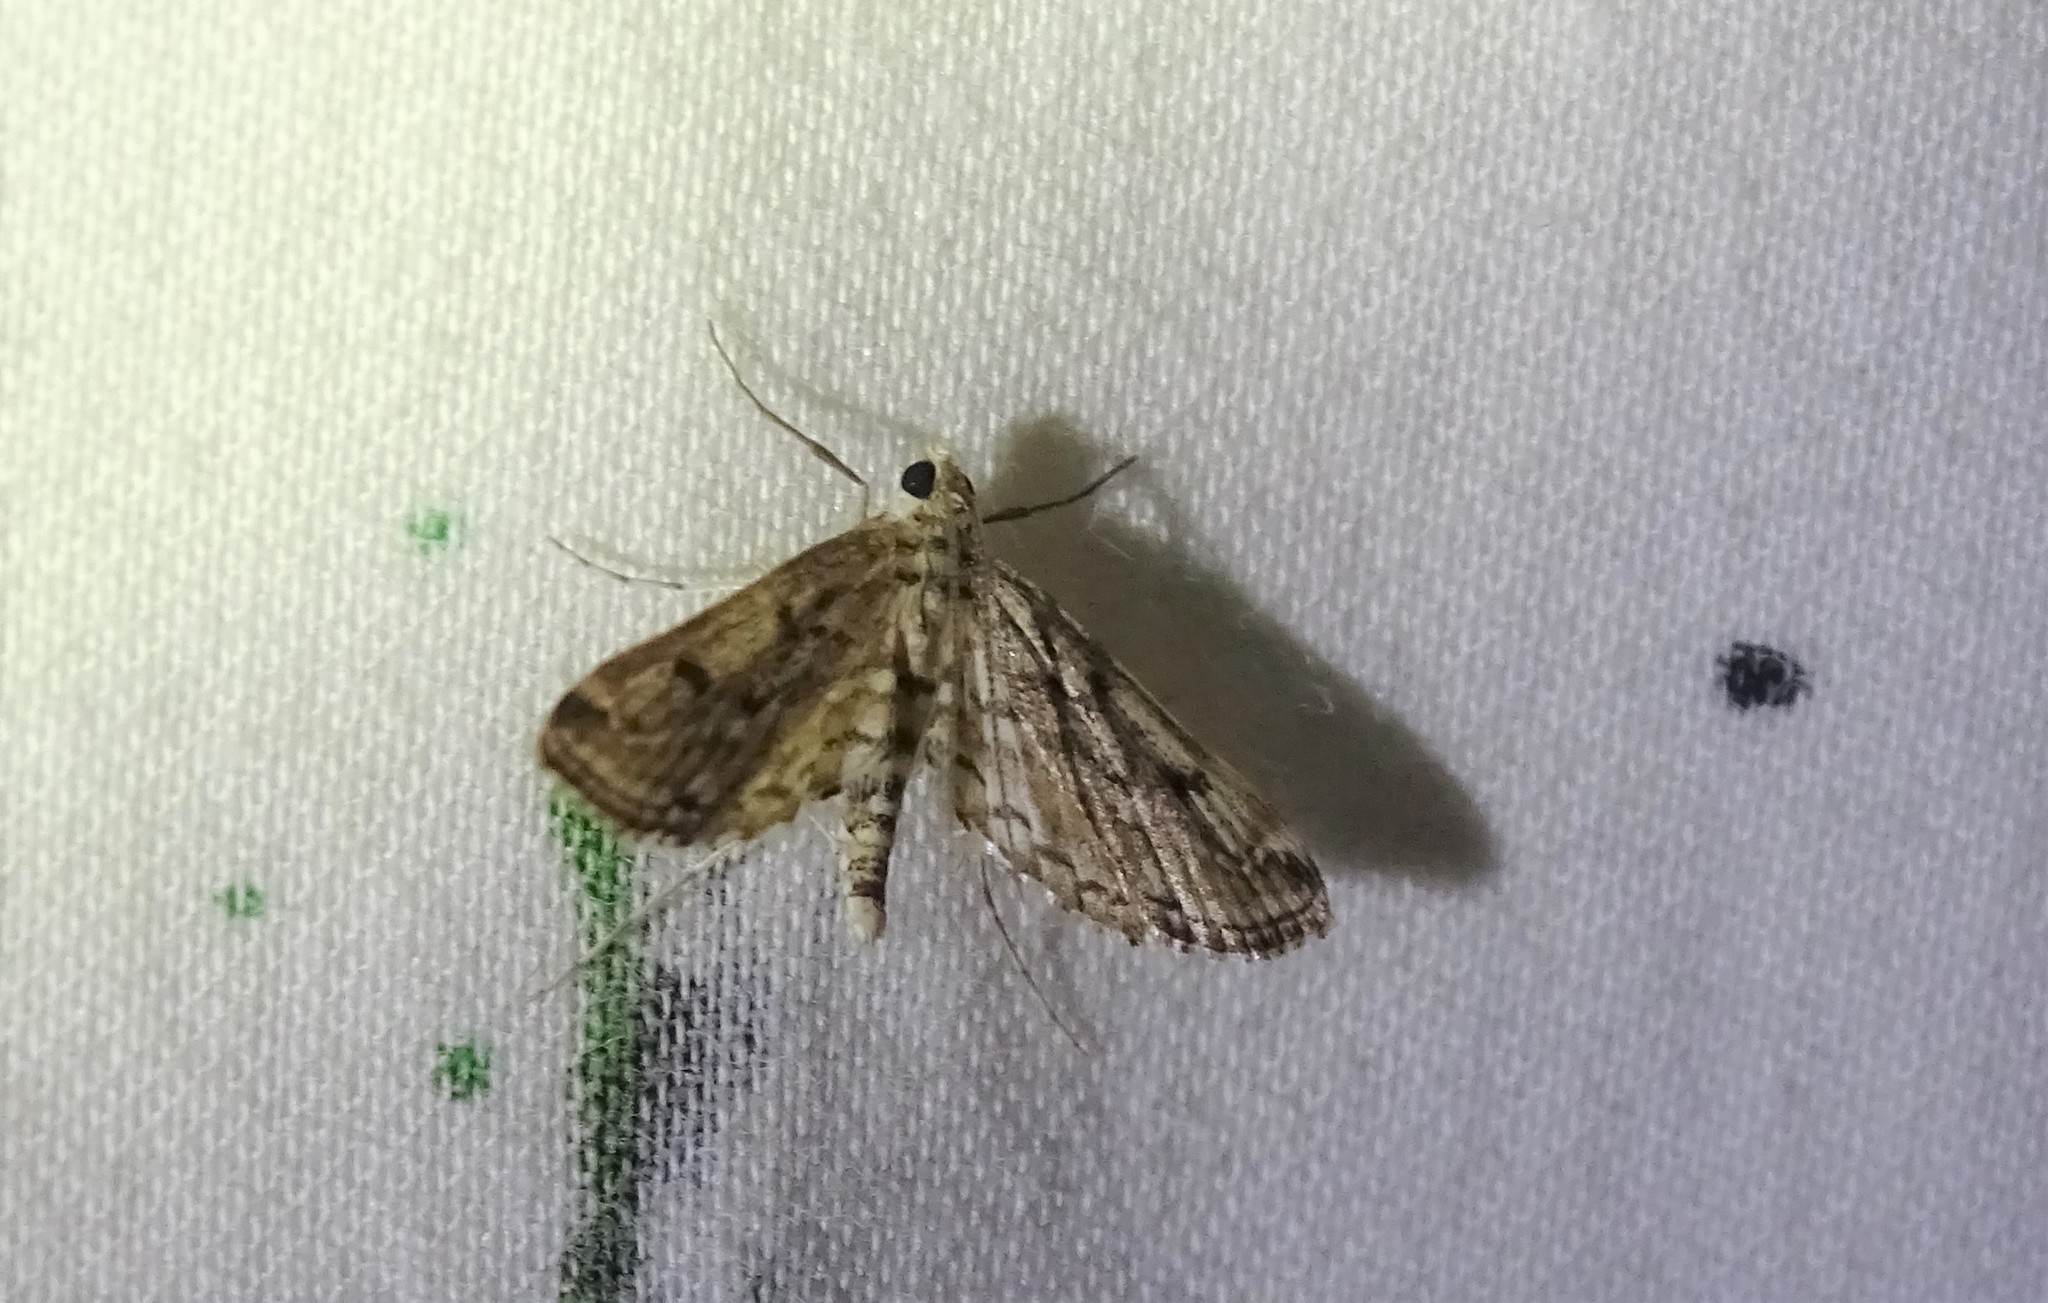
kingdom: Animalia
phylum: Arthropoda
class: Insecta
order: Lepidoptera
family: Crambidae
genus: Parapoynx
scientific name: Parapoynx allionealis
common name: Bladderwort casemaker
